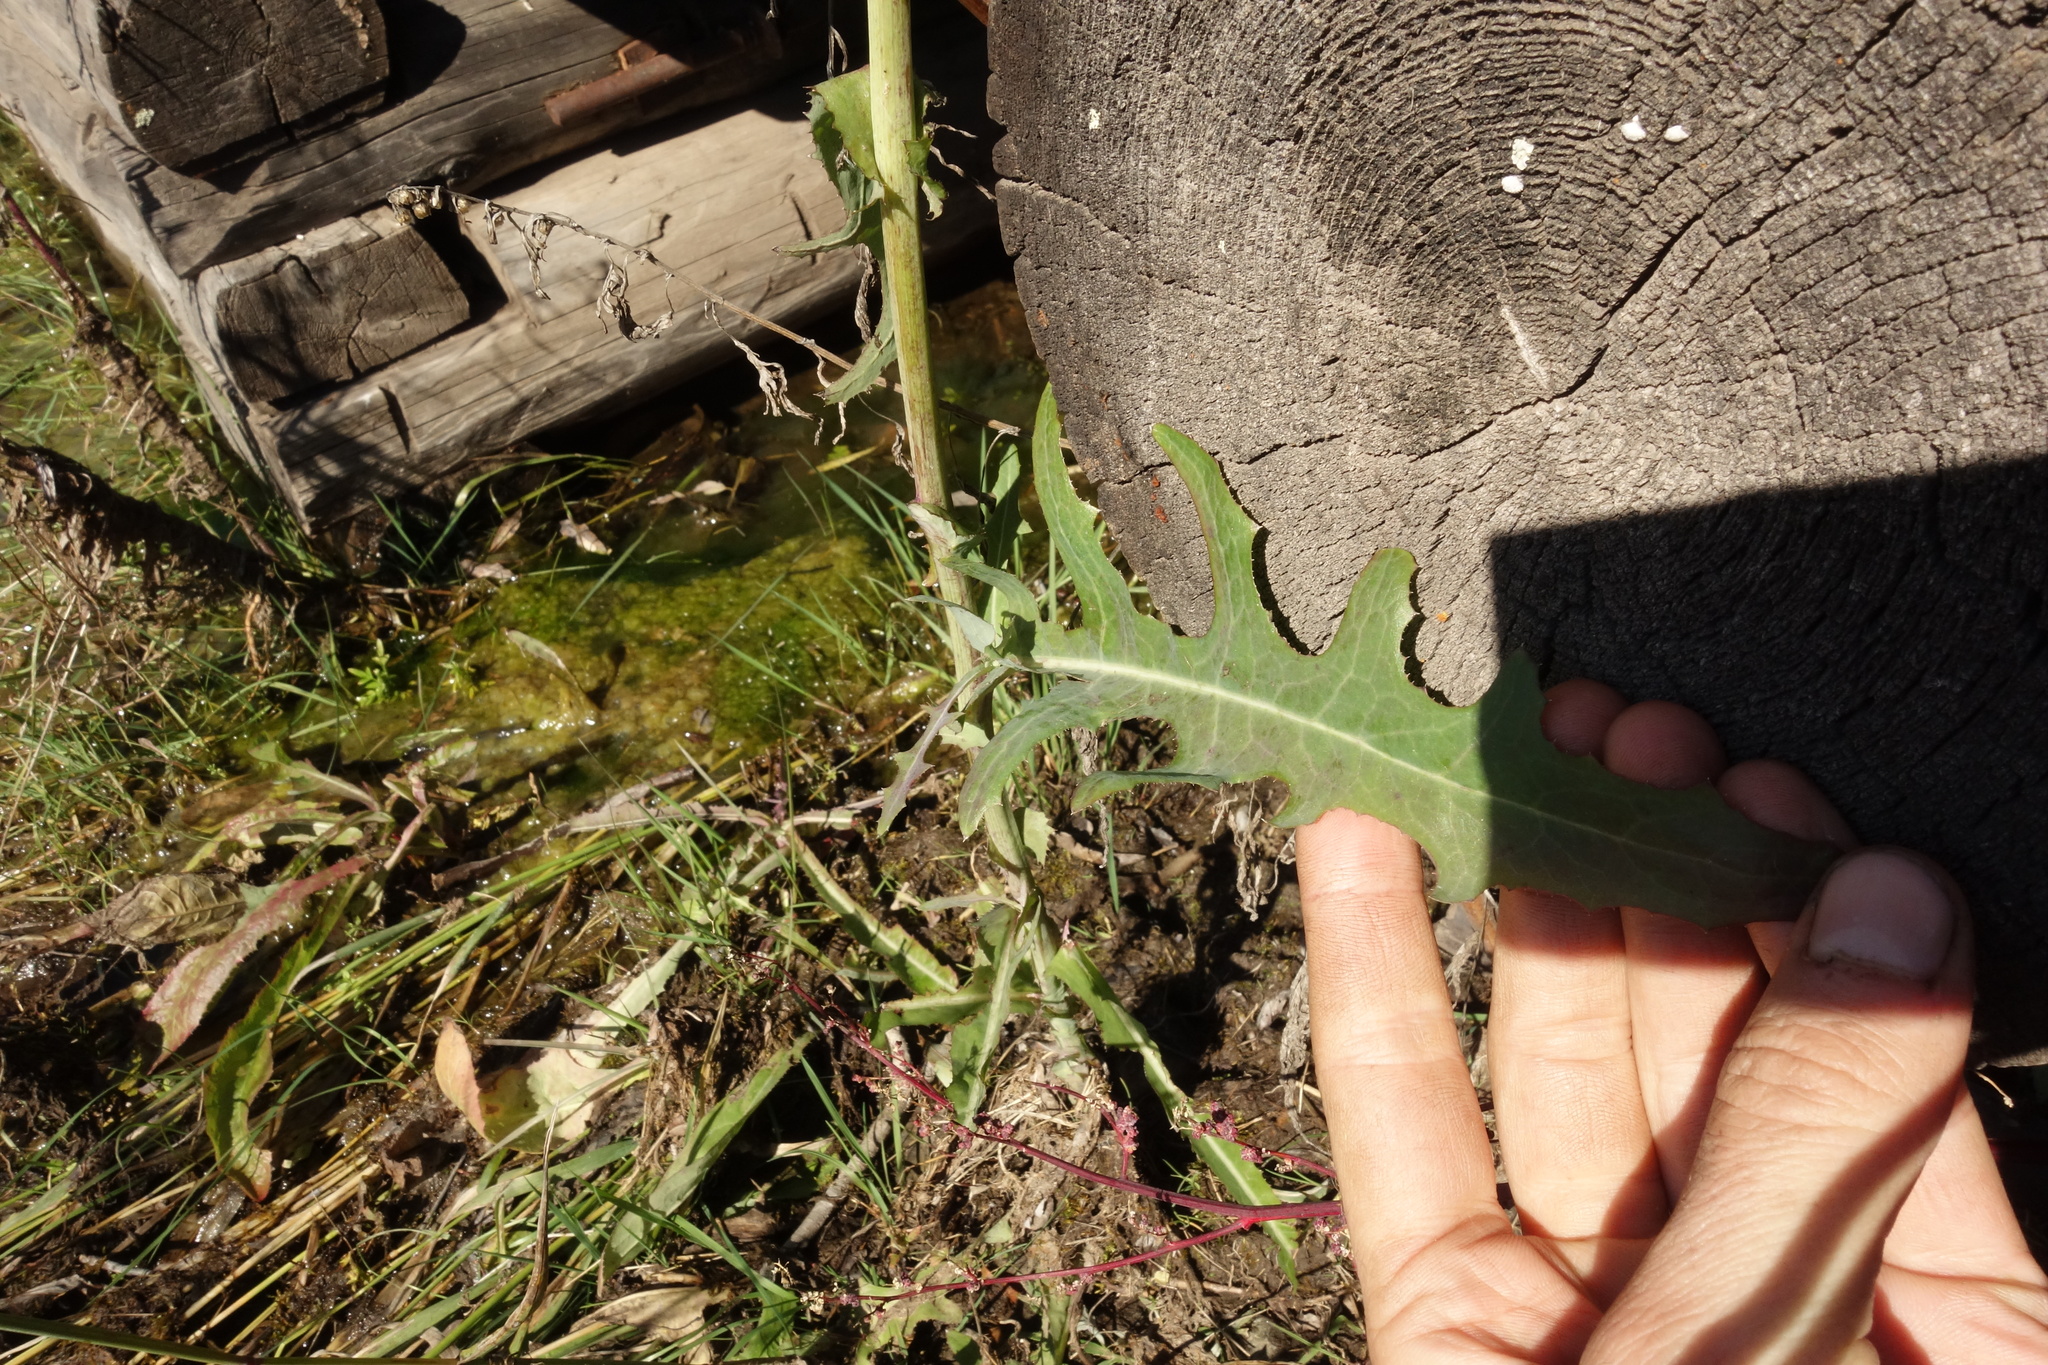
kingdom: Plantae
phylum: Tracheophyta
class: Magnoliopsida
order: Asterales
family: Asteraceae
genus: Sonchus
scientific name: Sonchus arvensis
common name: Perennial sow-thistle
